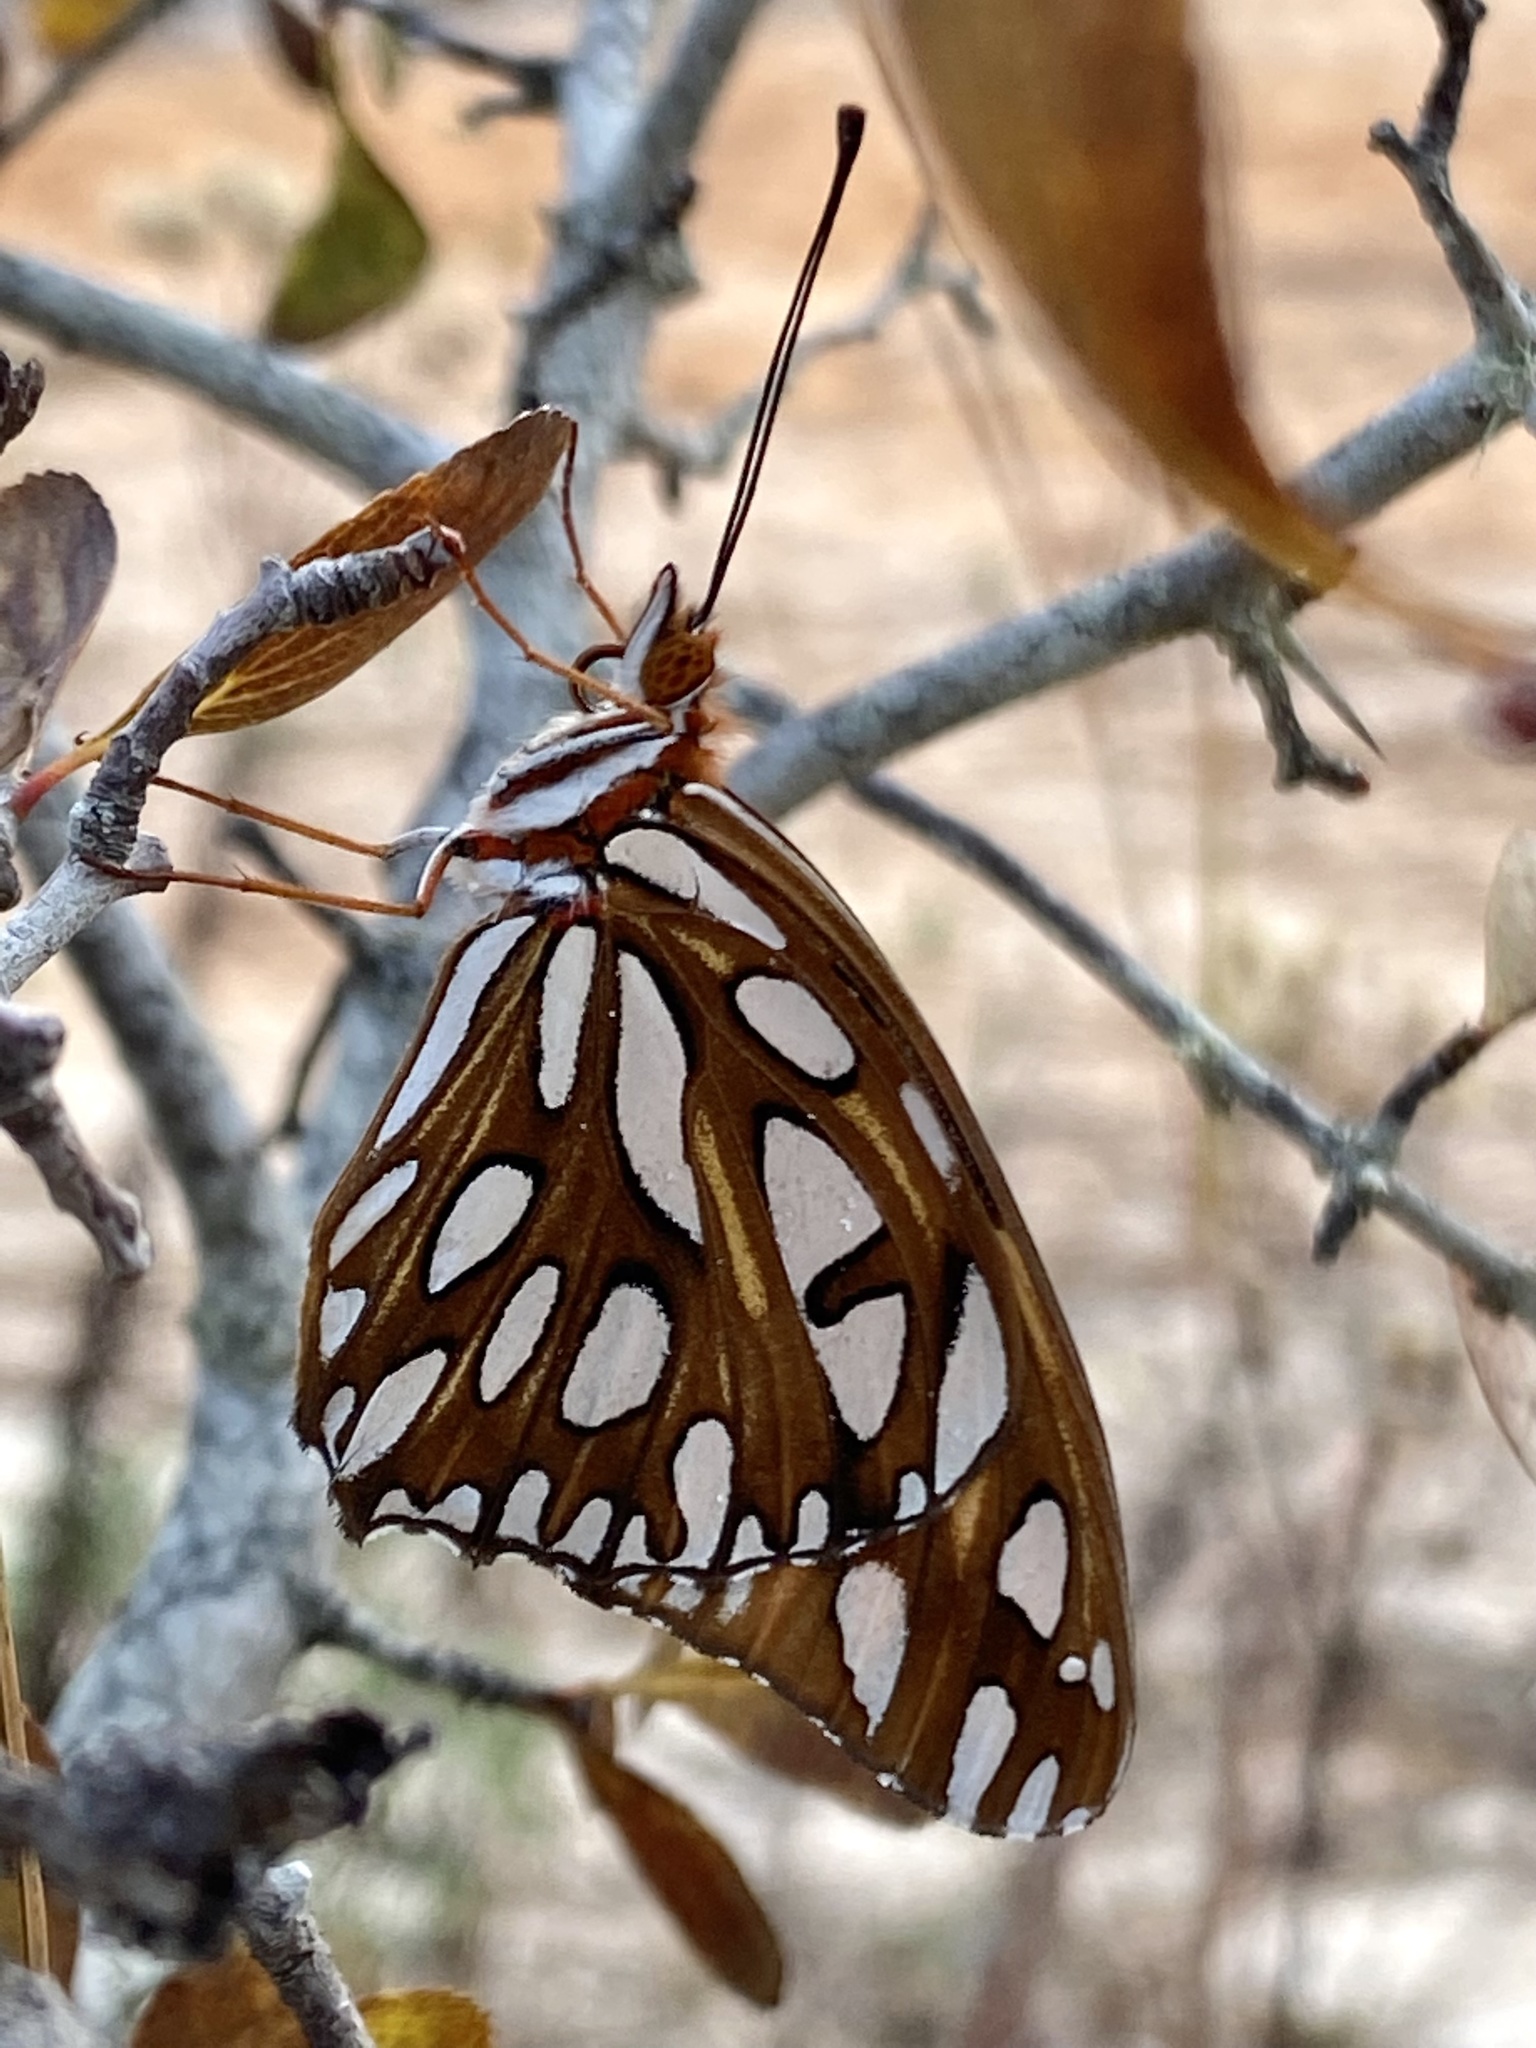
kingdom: Animalia
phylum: Arthropoda
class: Insecta
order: Lepidoptera
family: Nymphalidae
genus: Dione
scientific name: Dione vanillae
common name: Gulf fritillary
